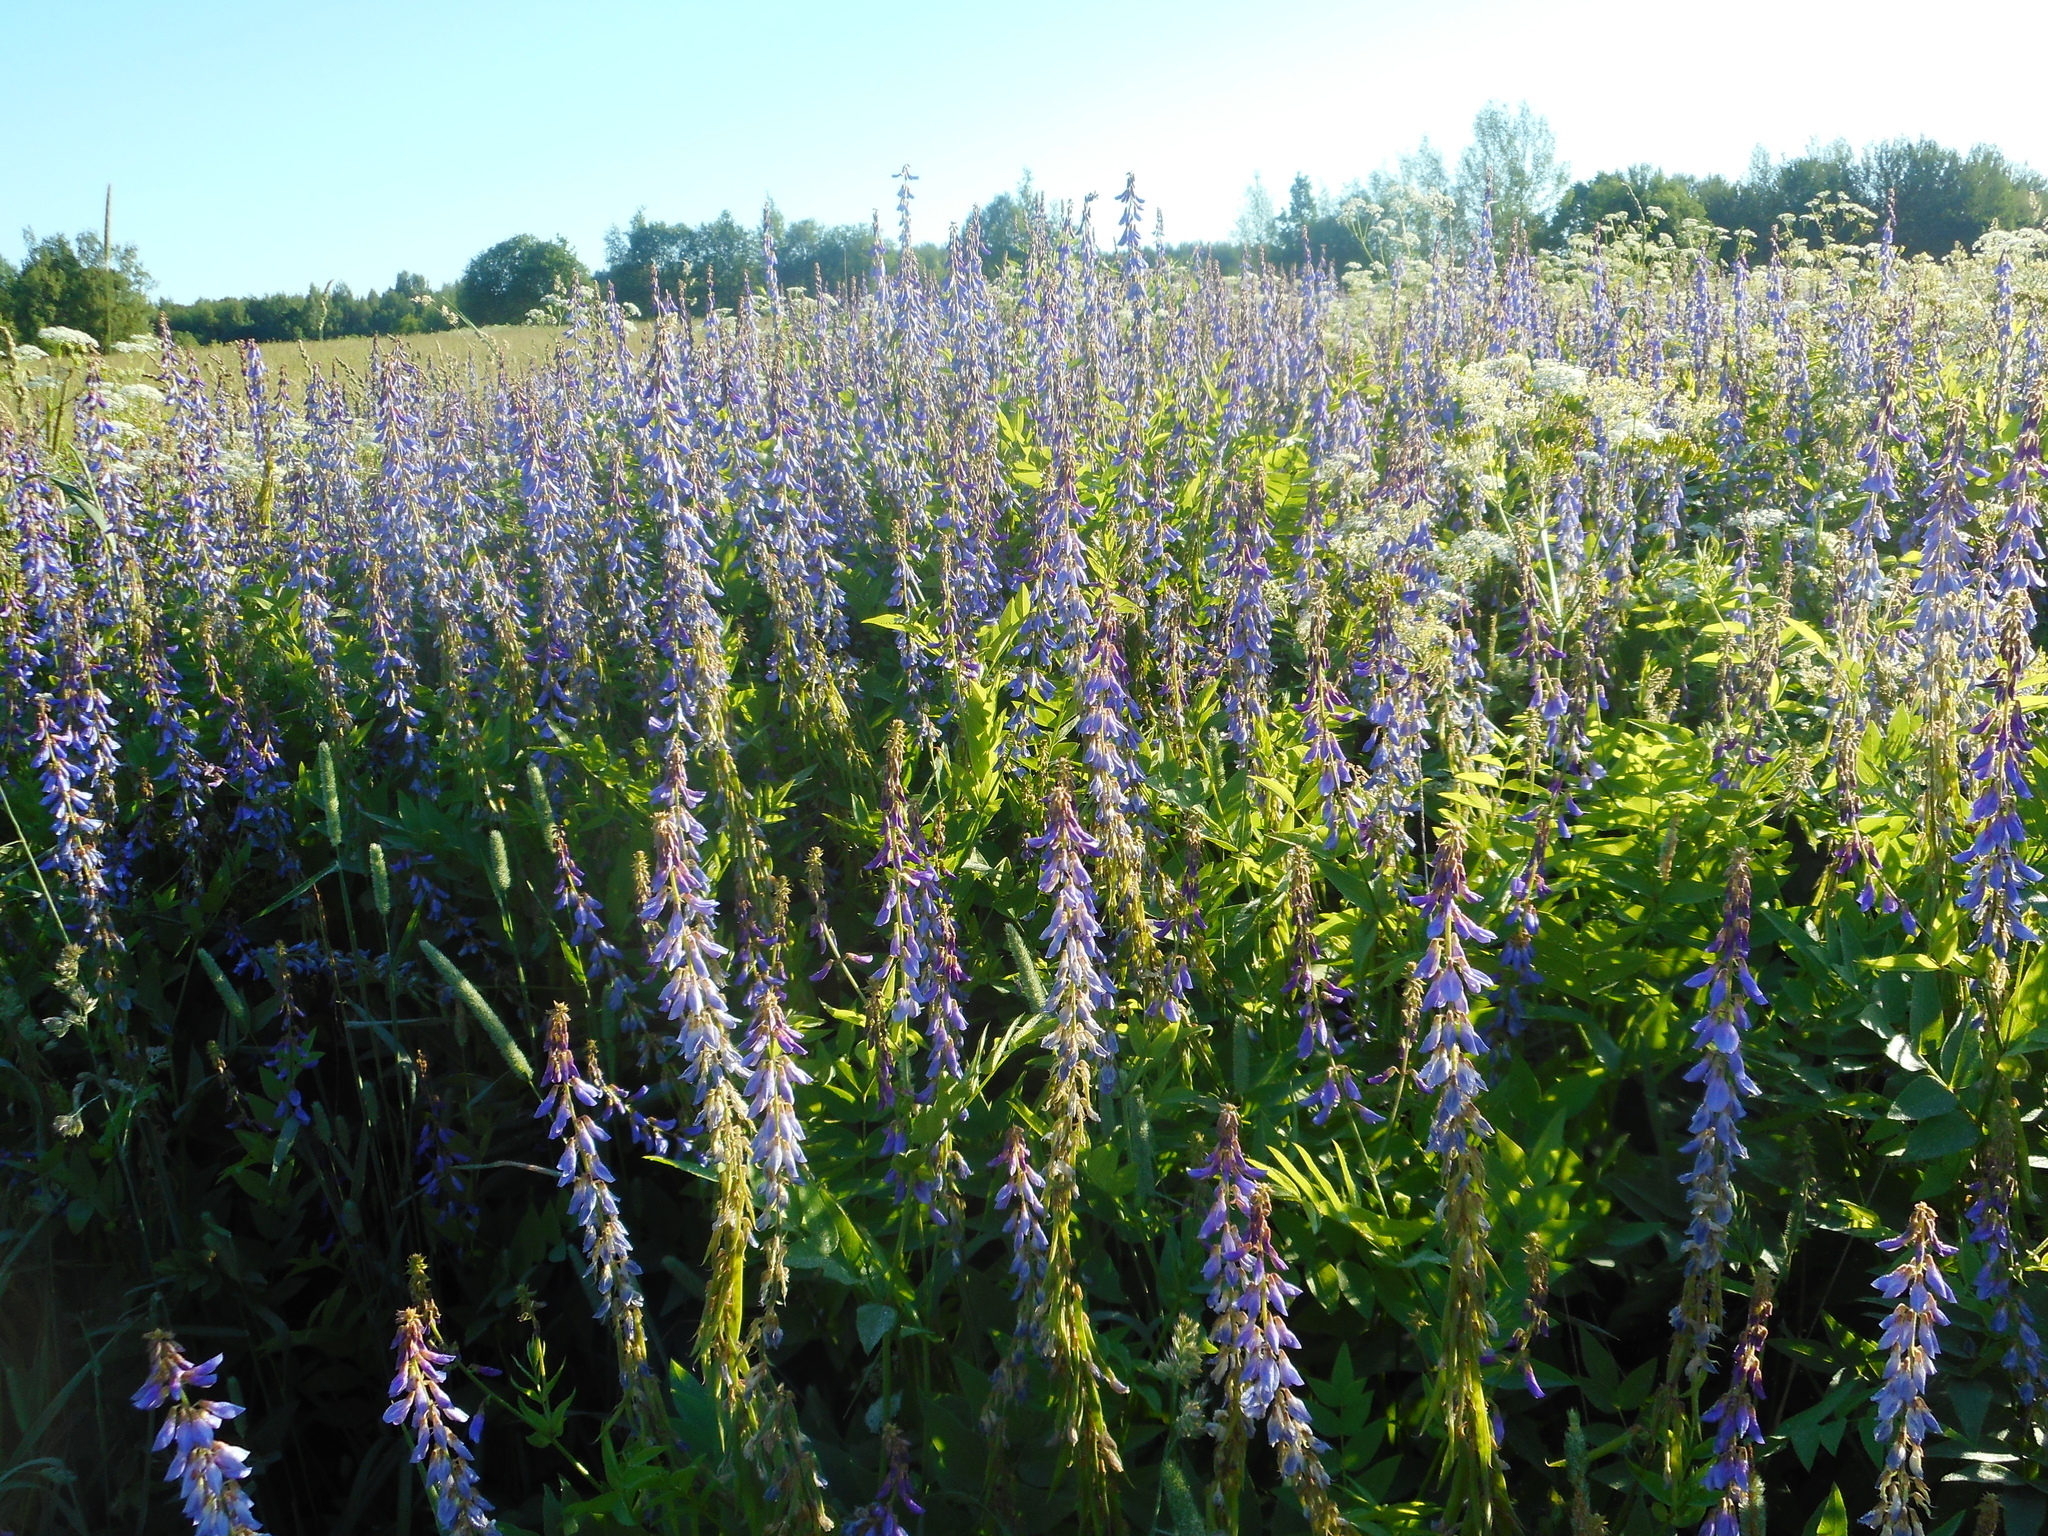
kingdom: Plantae
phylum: Tracheophyta
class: Magnoliopsida
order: Fabales
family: Fabaceae
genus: Galega
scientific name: Galega orientalis
